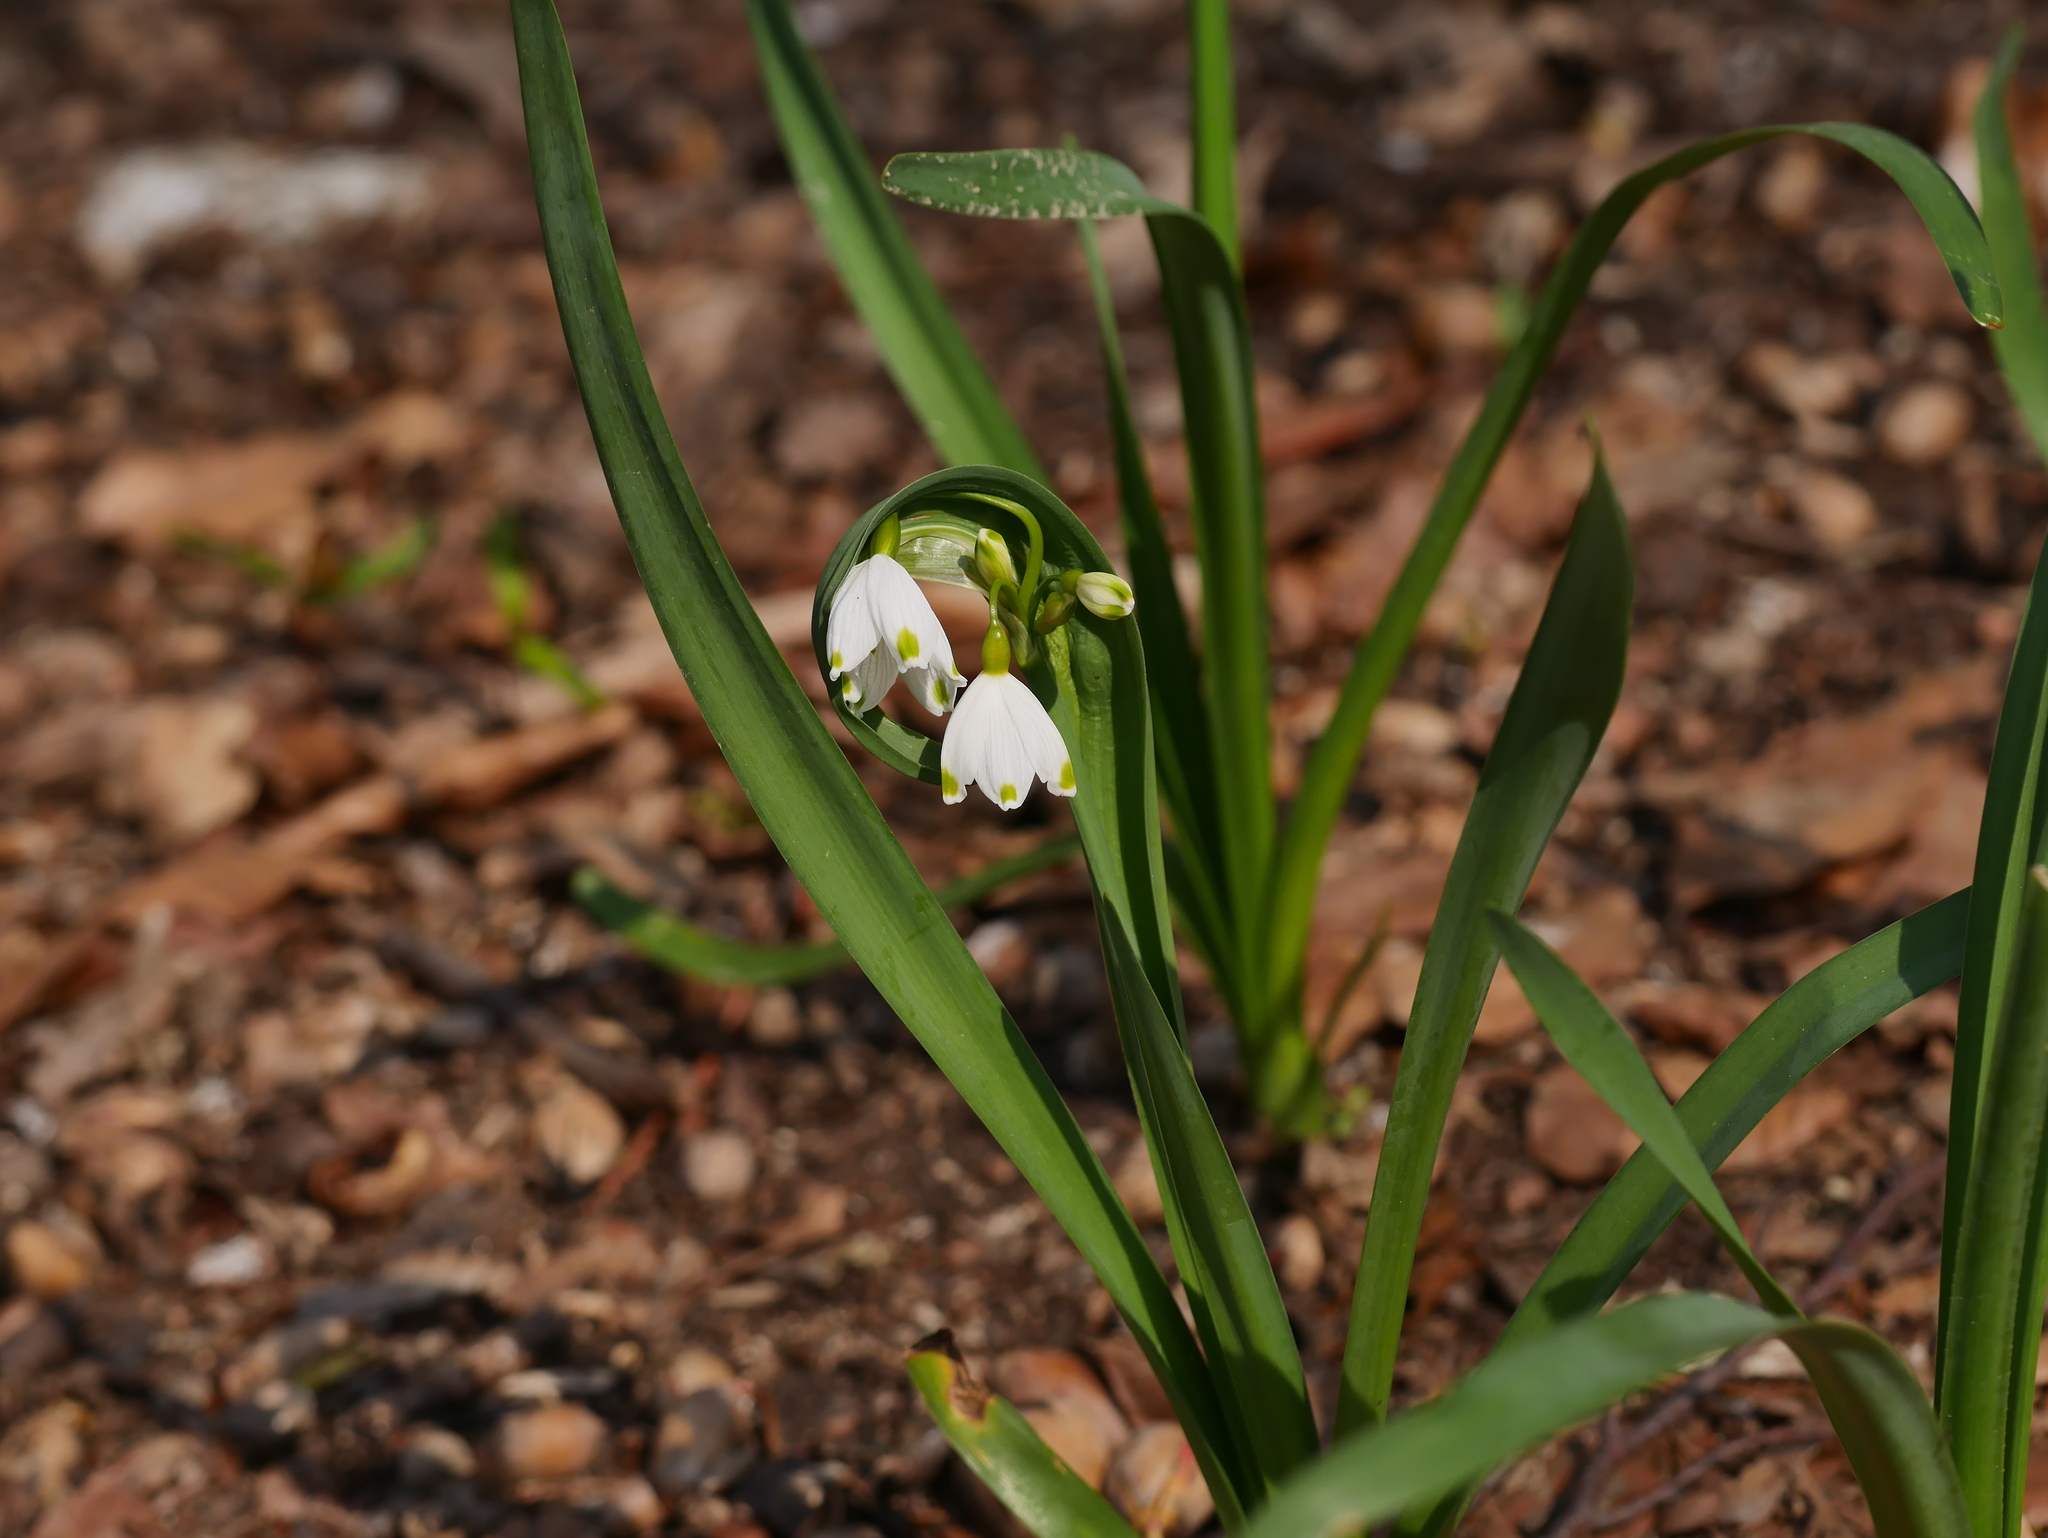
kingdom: Plantae
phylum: Tracheophyta
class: Liliopsida
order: Asparagales
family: Amaryllidaceae
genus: Leucojum
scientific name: Leucojum aestivum
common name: Summer snowflake
